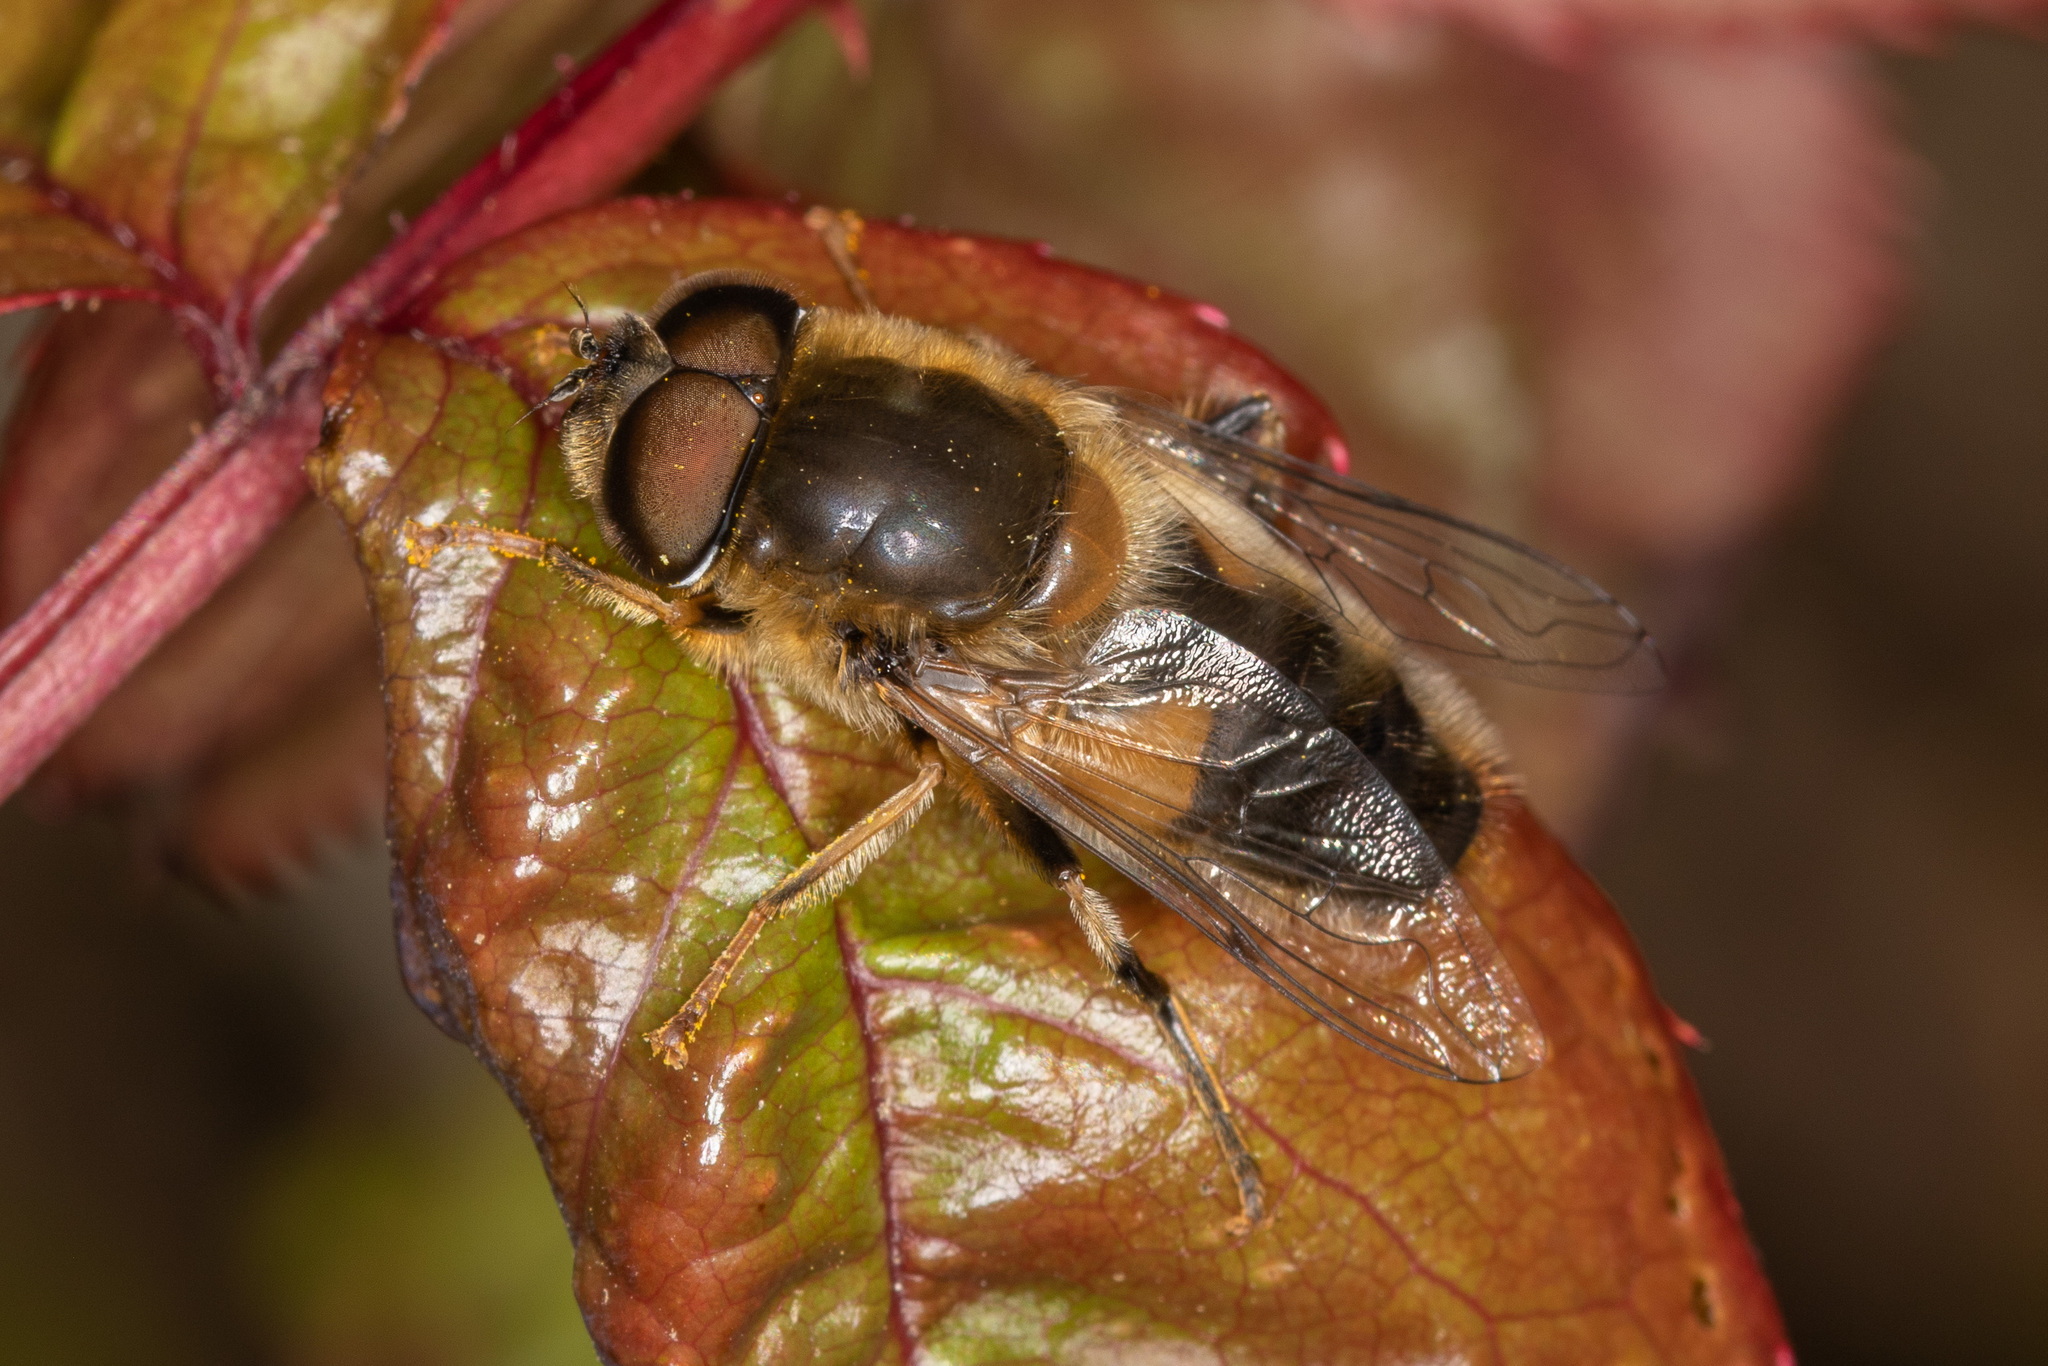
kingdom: Animalia
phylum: Arthropoda
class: Insecta
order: Diptera
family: Syrphidae
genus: Eristalis
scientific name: Eristalis pertinax
